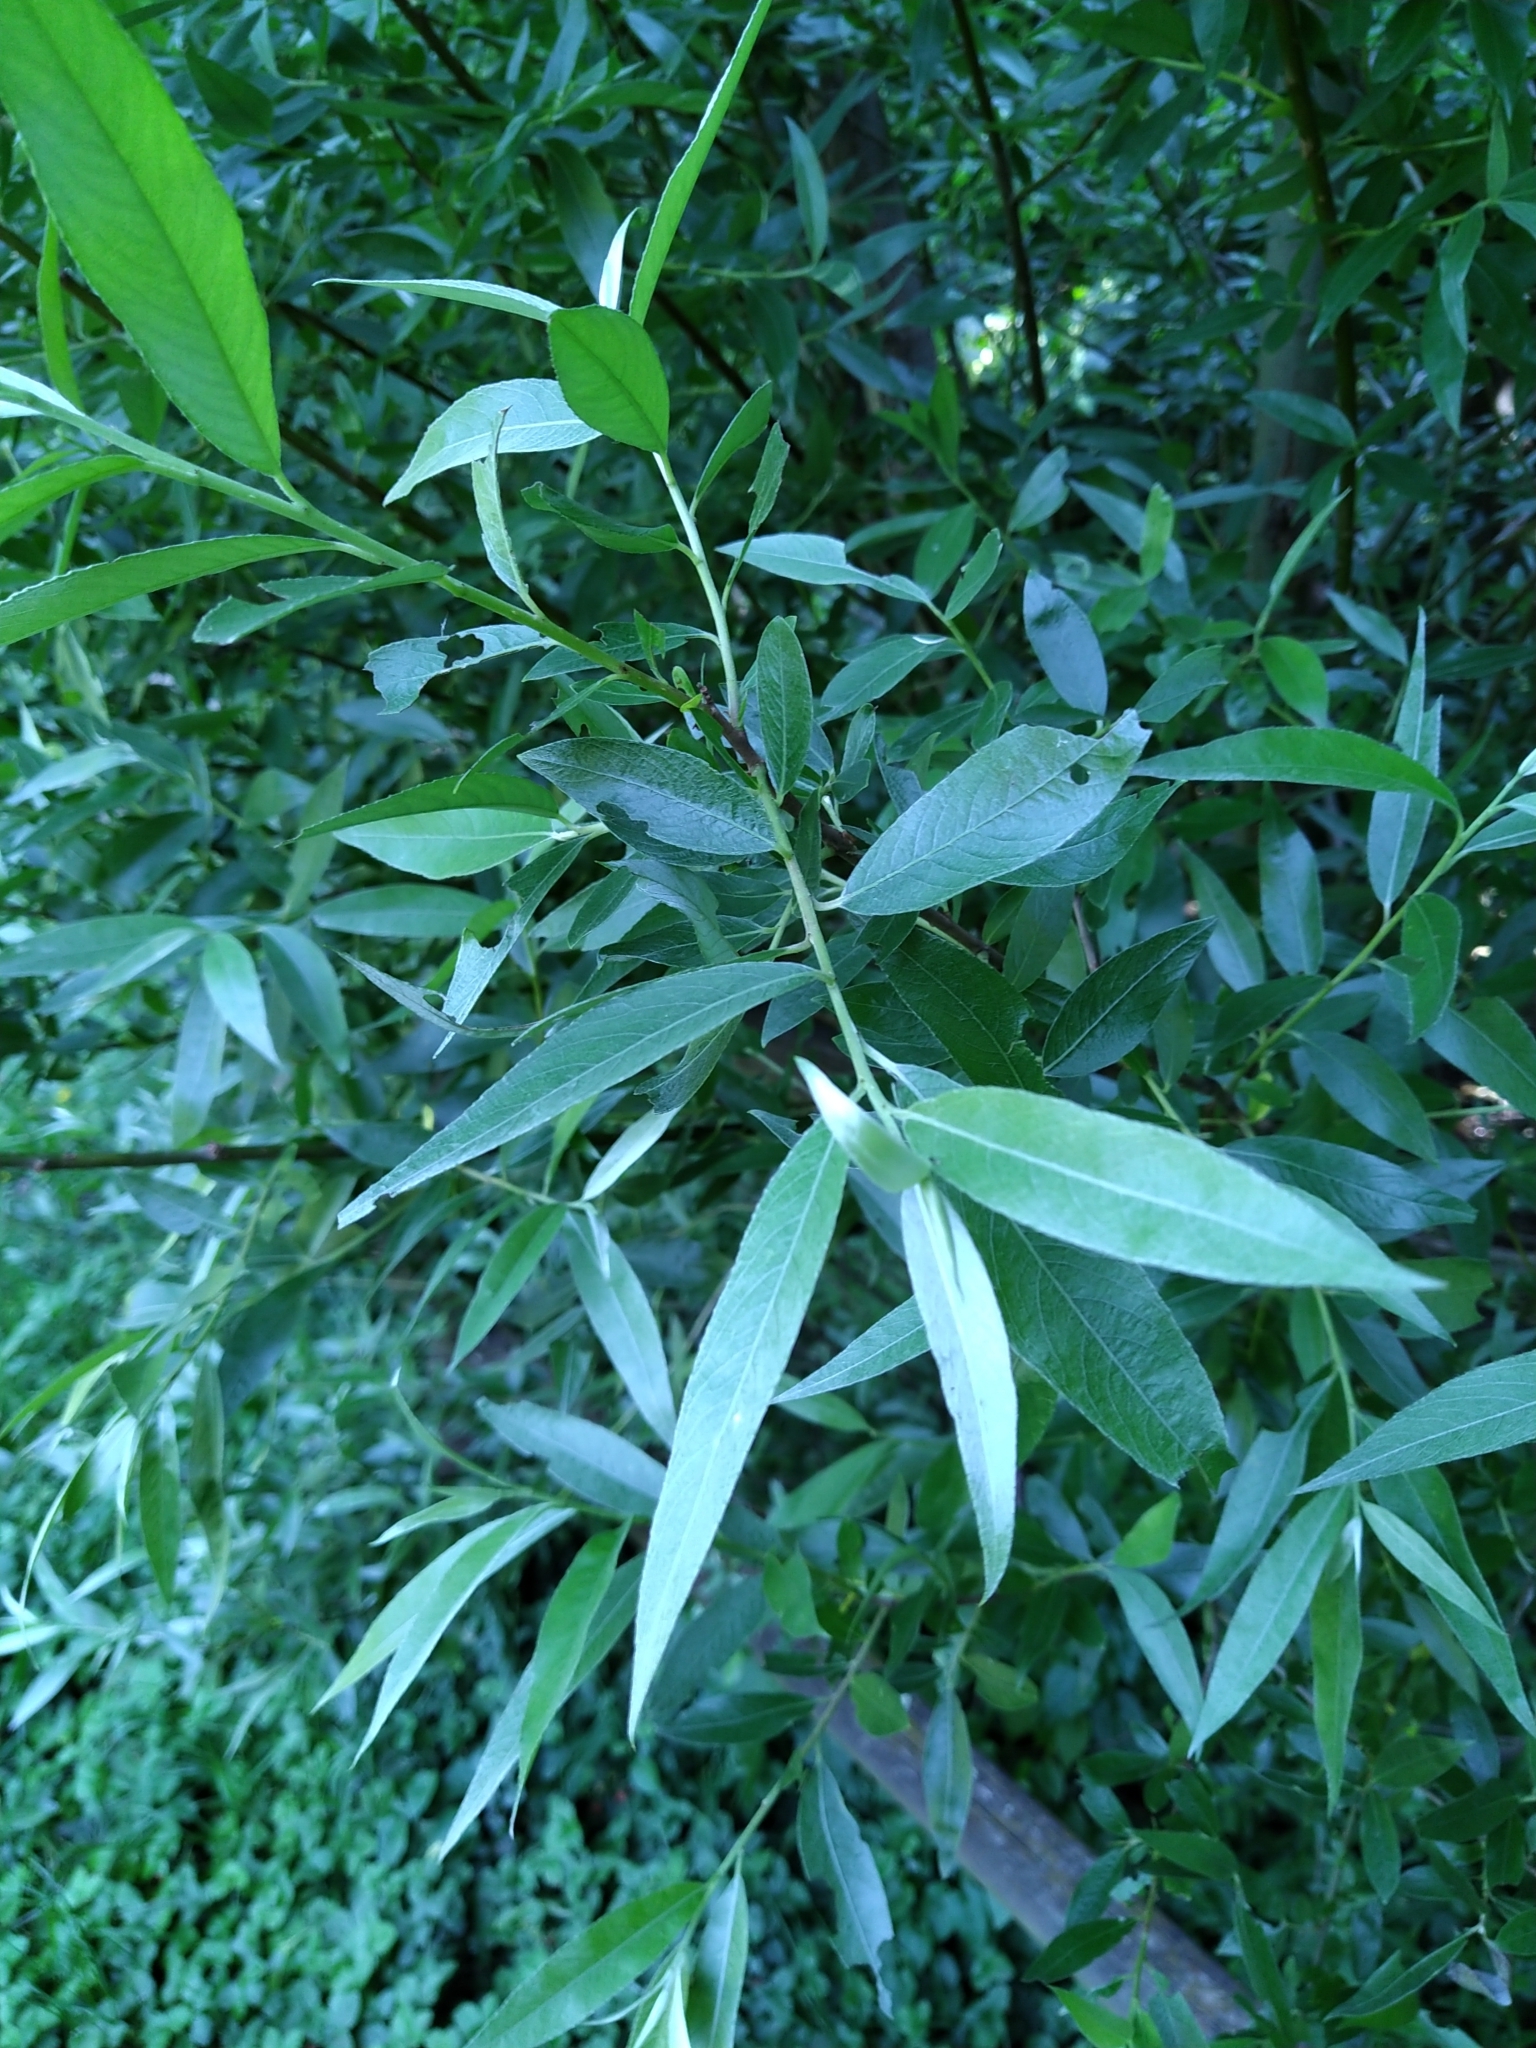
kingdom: Plantae
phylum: Tracheophyta
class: Magnoliopsida
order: Malpighiales
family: Salicaceae
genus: Salix
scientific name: Salix alba
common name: White willow
